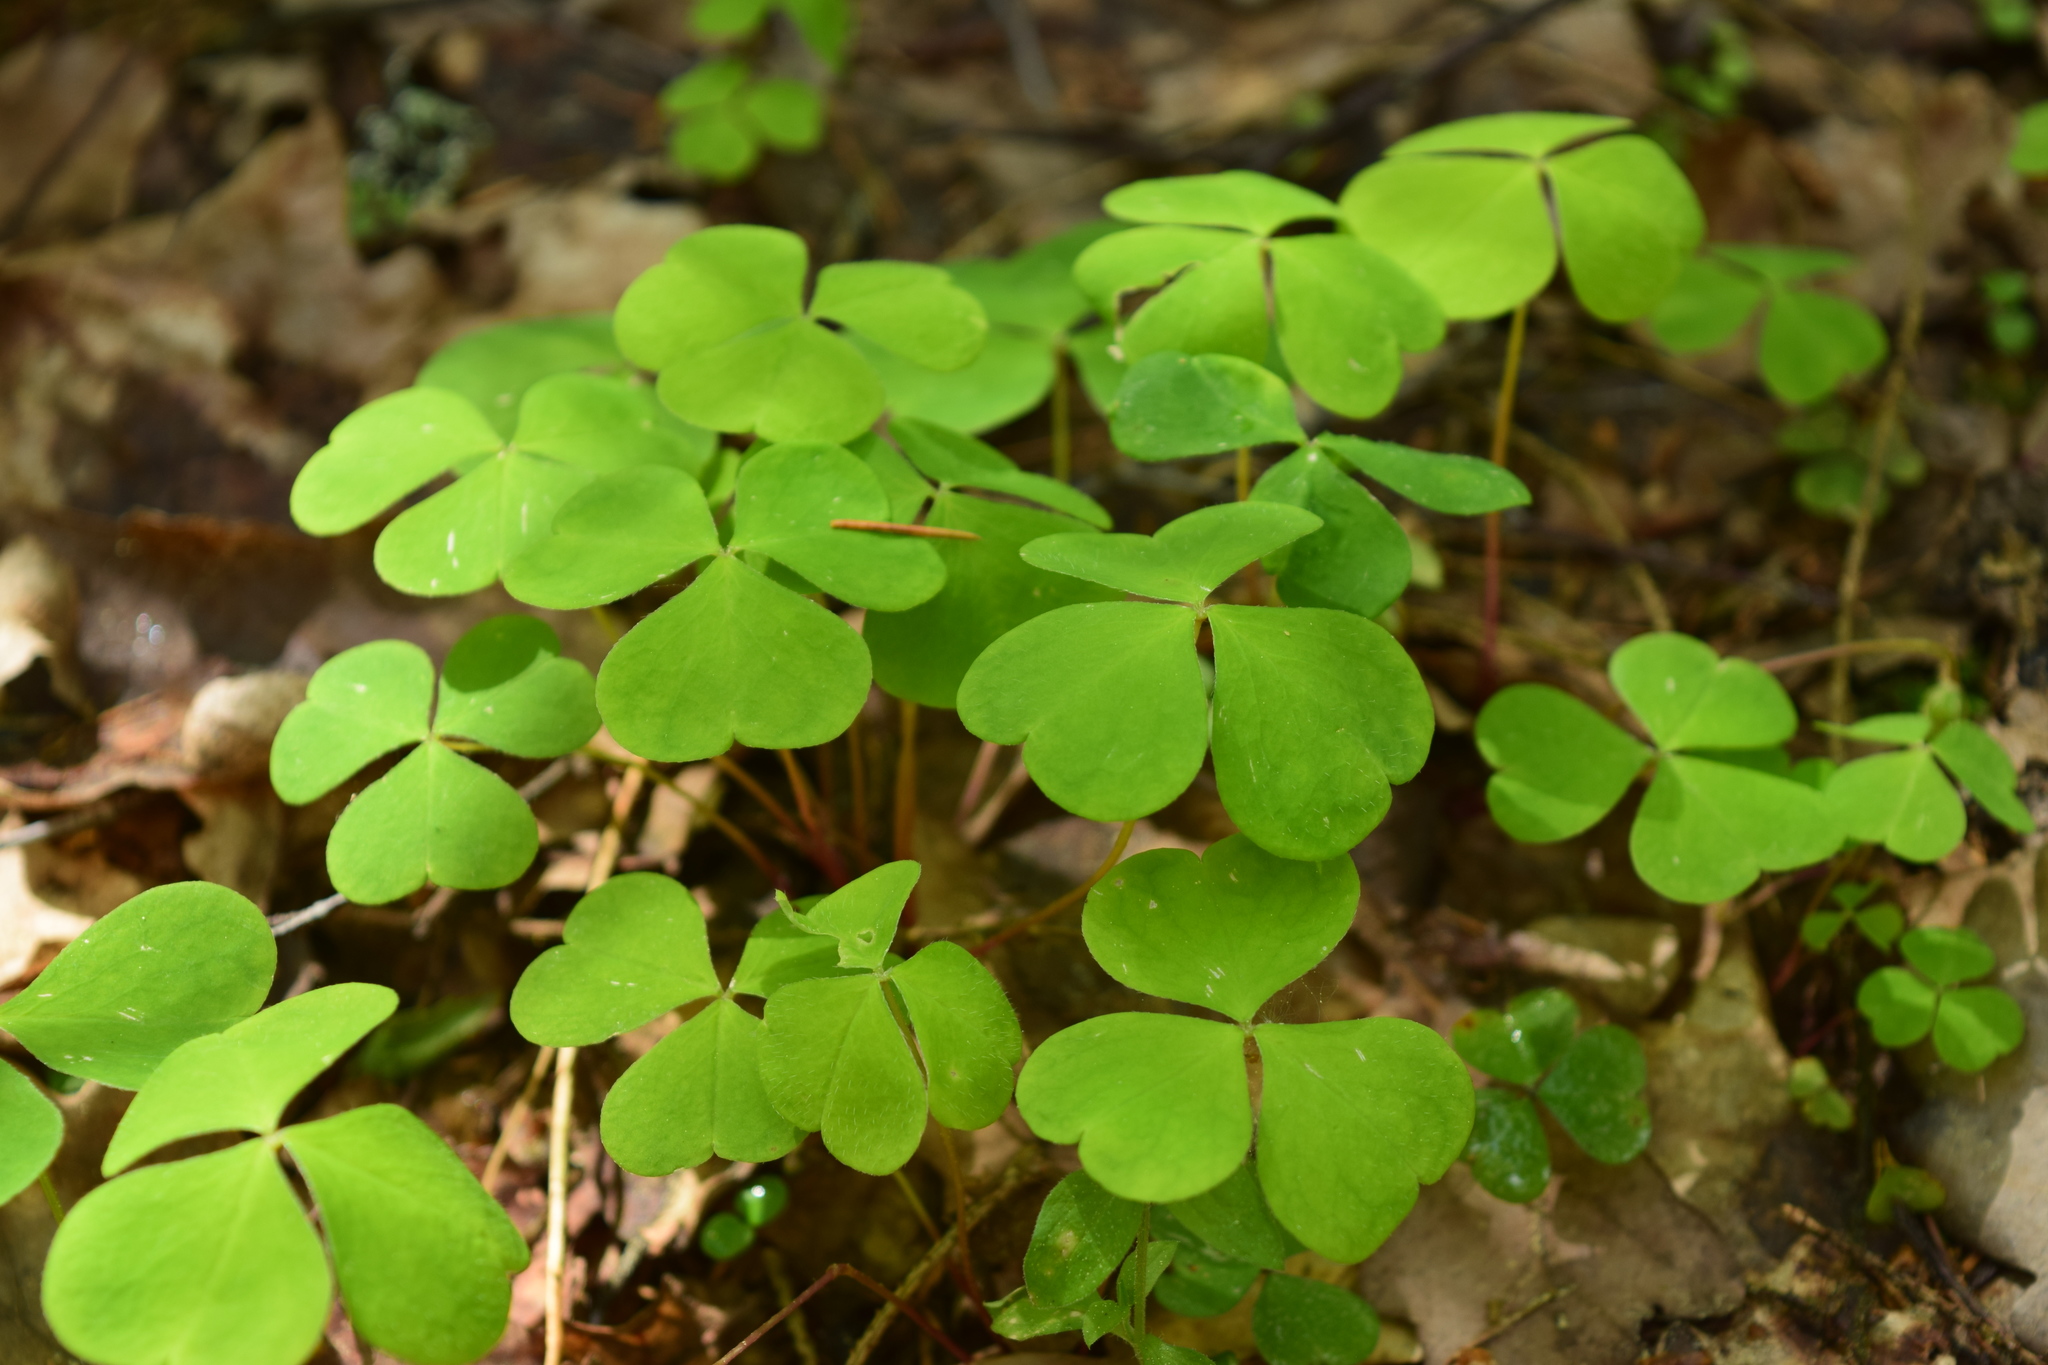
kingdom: Plantae
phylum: Tracheophyta
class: Magnoliopsida
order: Oxalidales
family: Oxalidaceae
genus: Oxalis
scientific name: Oxalis acetosella
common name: Wood-sorrel
